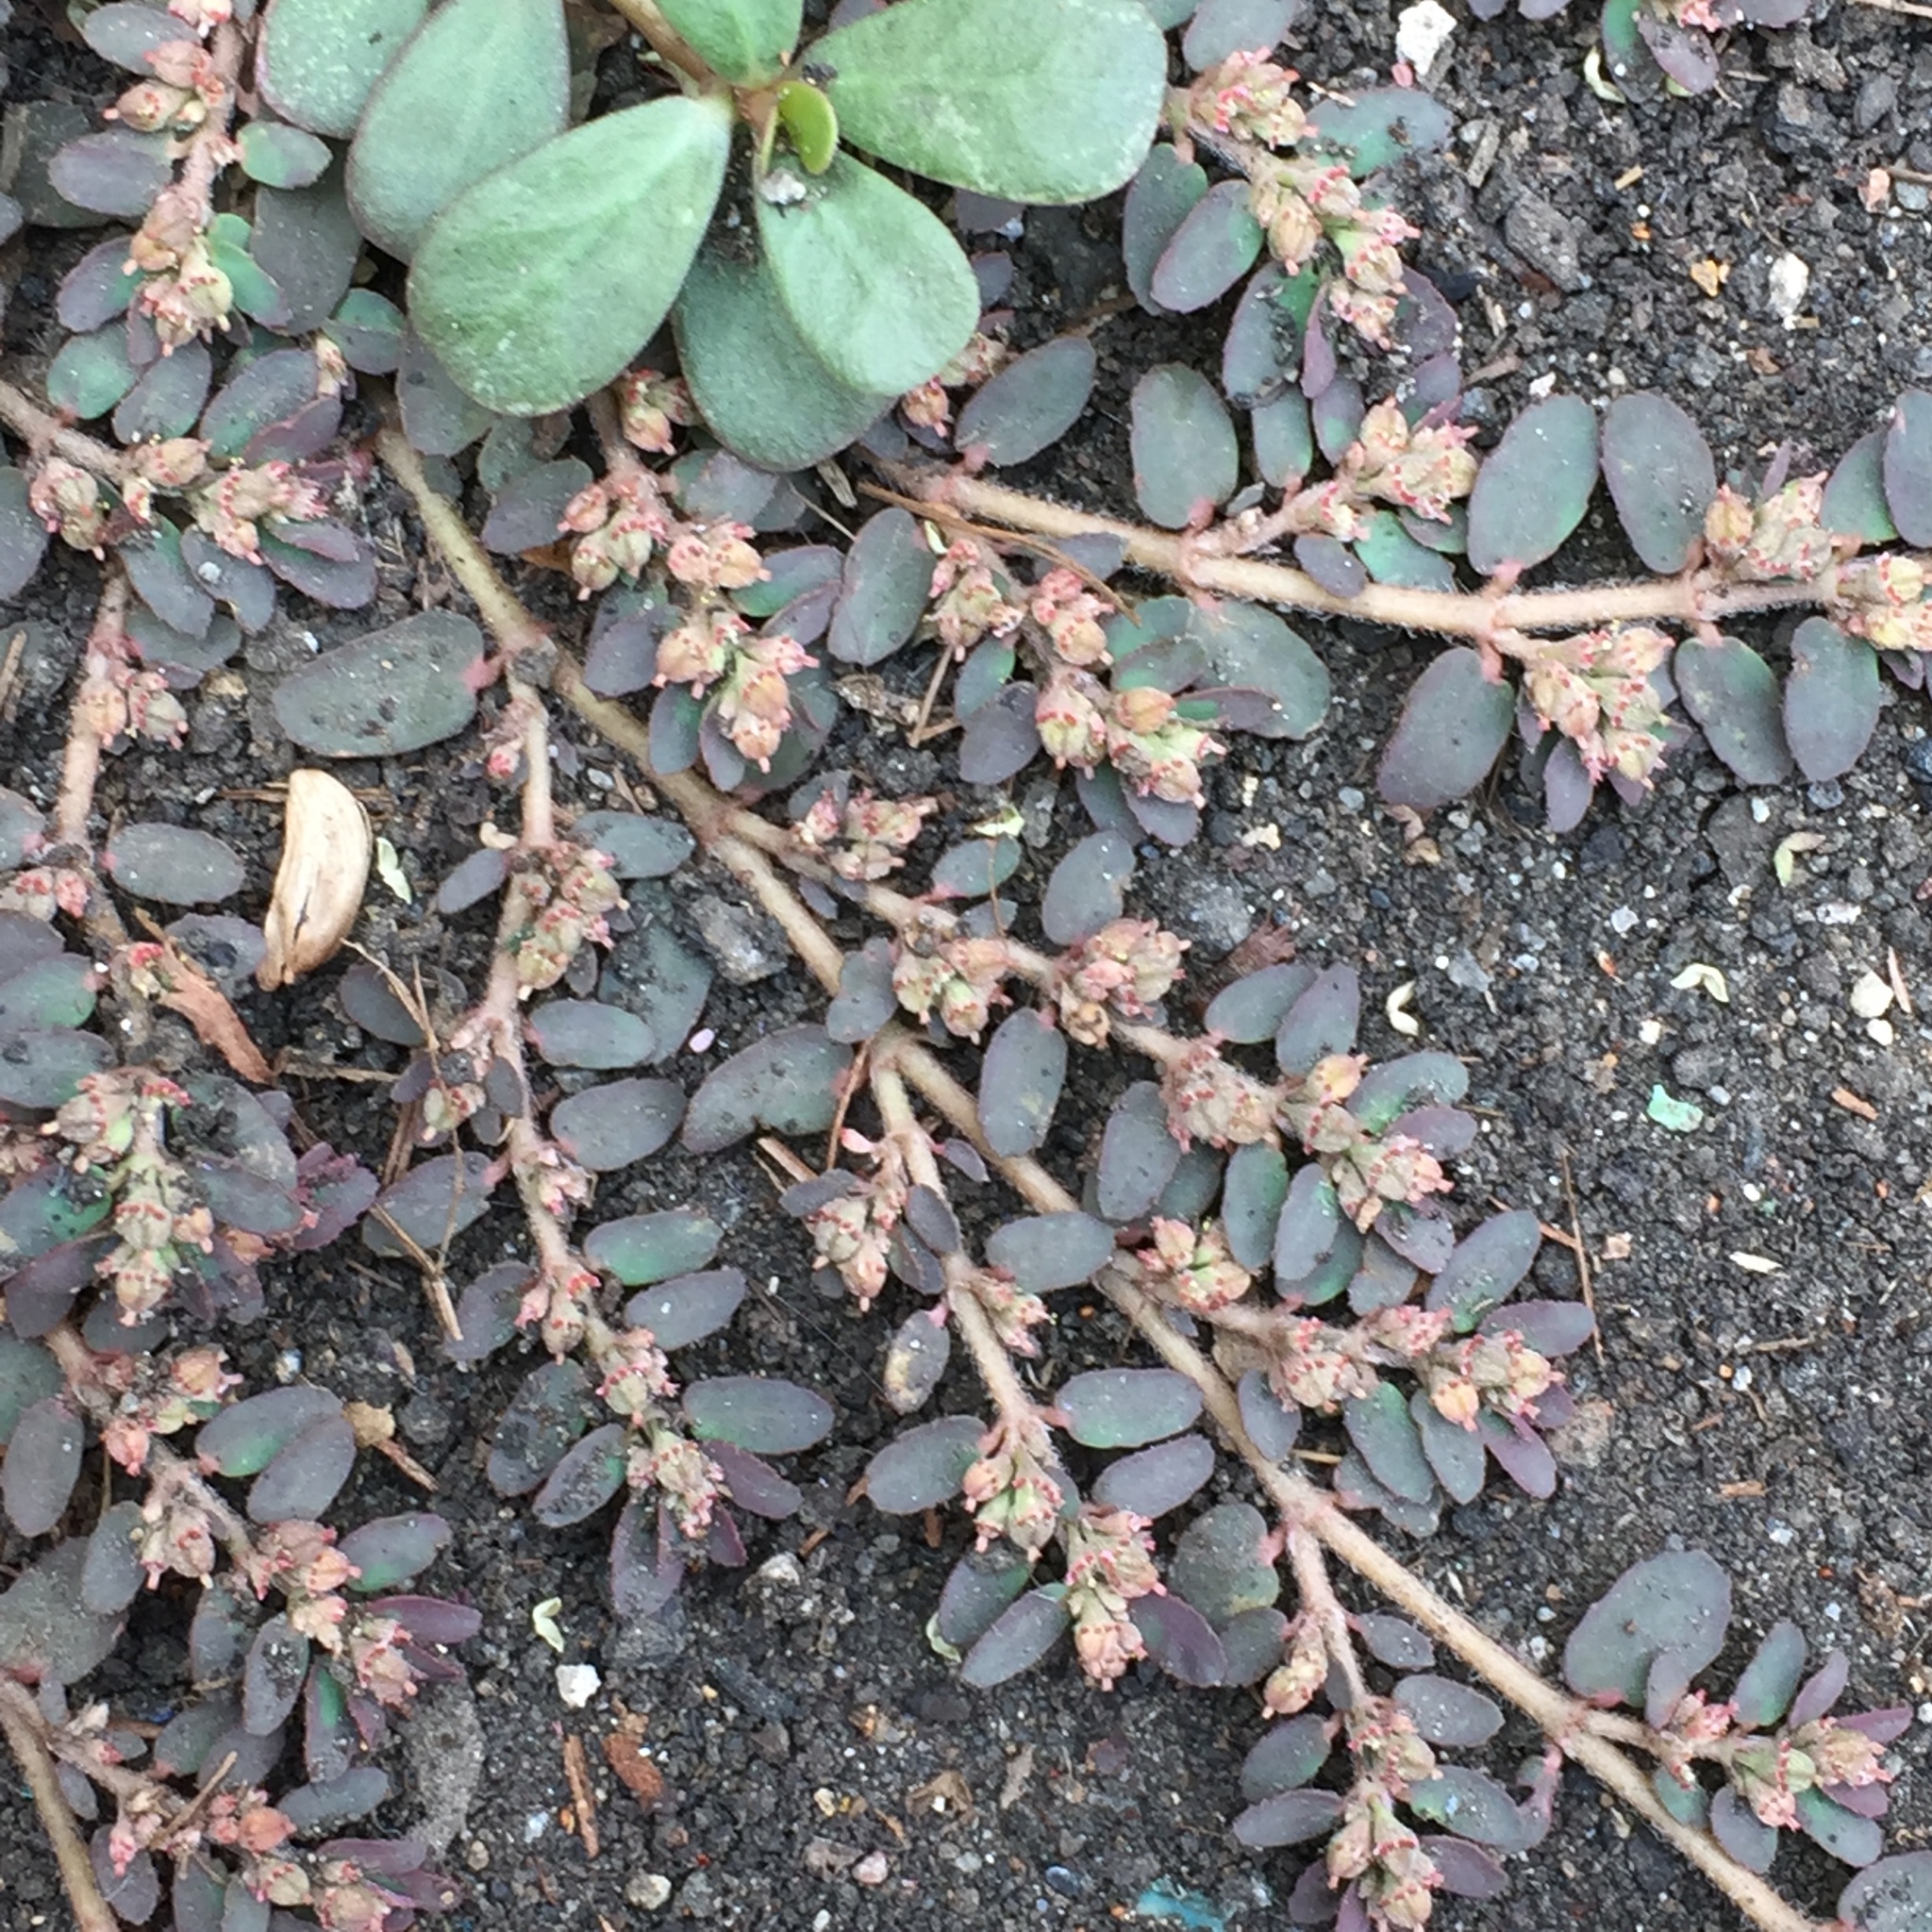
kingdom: Plantae
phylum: Tracheophyta
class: Magnoliopsida
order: Malpighiales
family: Euphorbiaceae
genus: Euphorbia
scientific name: Euphorbia thymifolia
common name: Gulf sandmat
